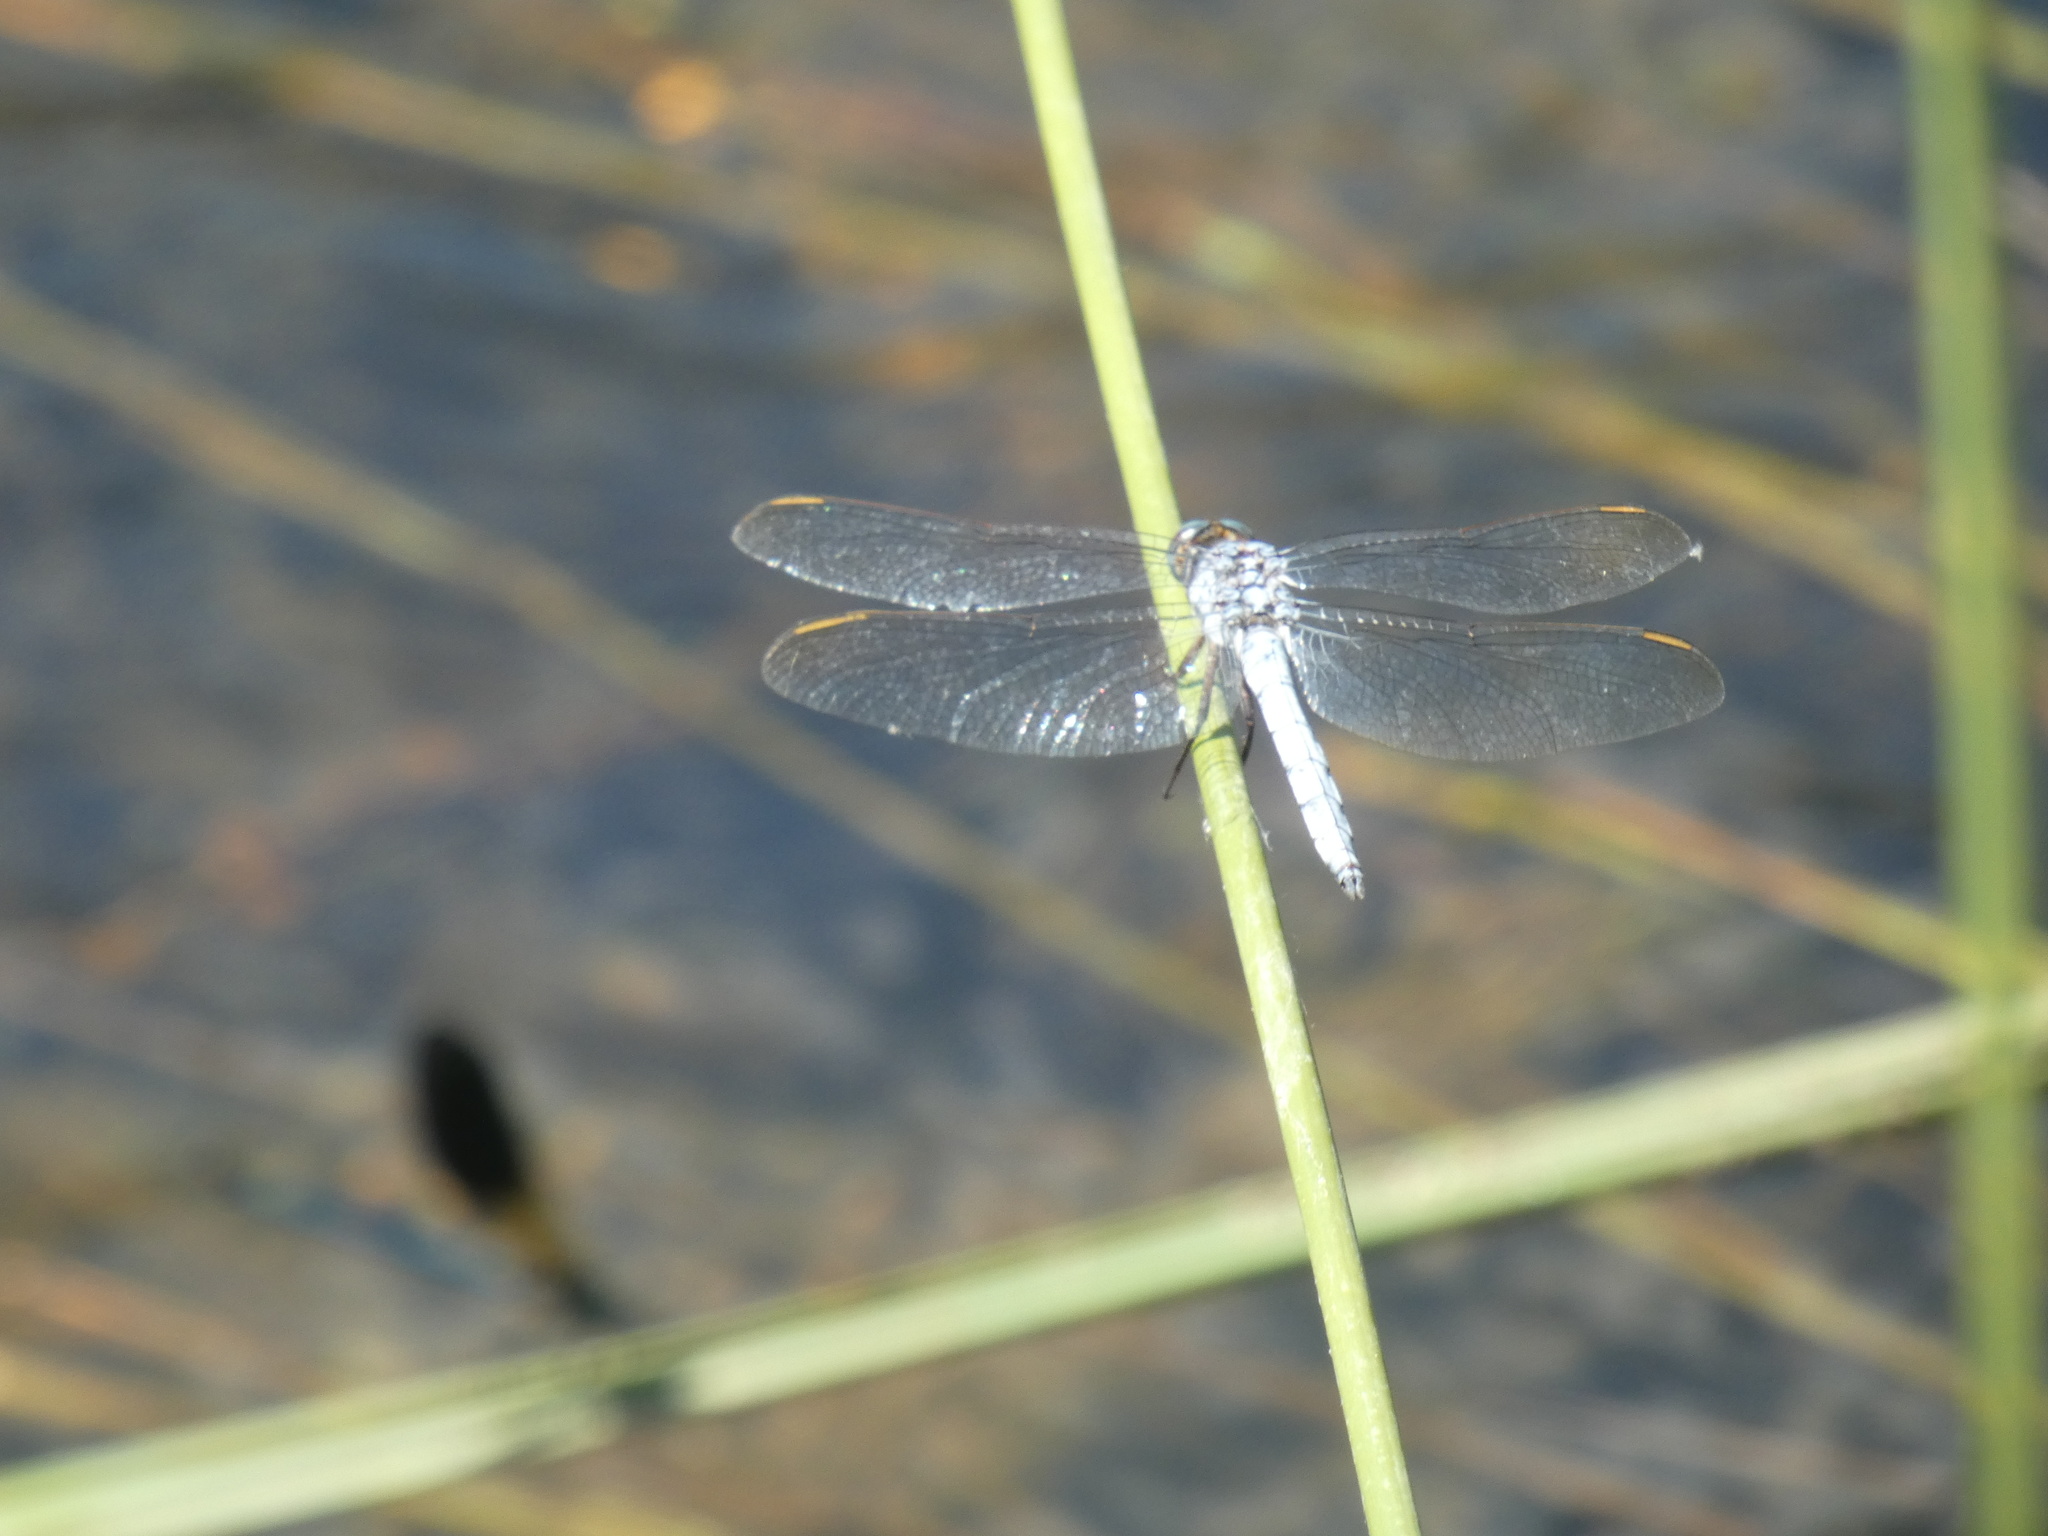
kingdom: Animalia
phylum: Arthropoda
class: Insecta
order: Odonata
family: Libellulidae
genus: Orthetrum
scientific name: Orthetrum coerulescens
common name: Keeled skimmer
